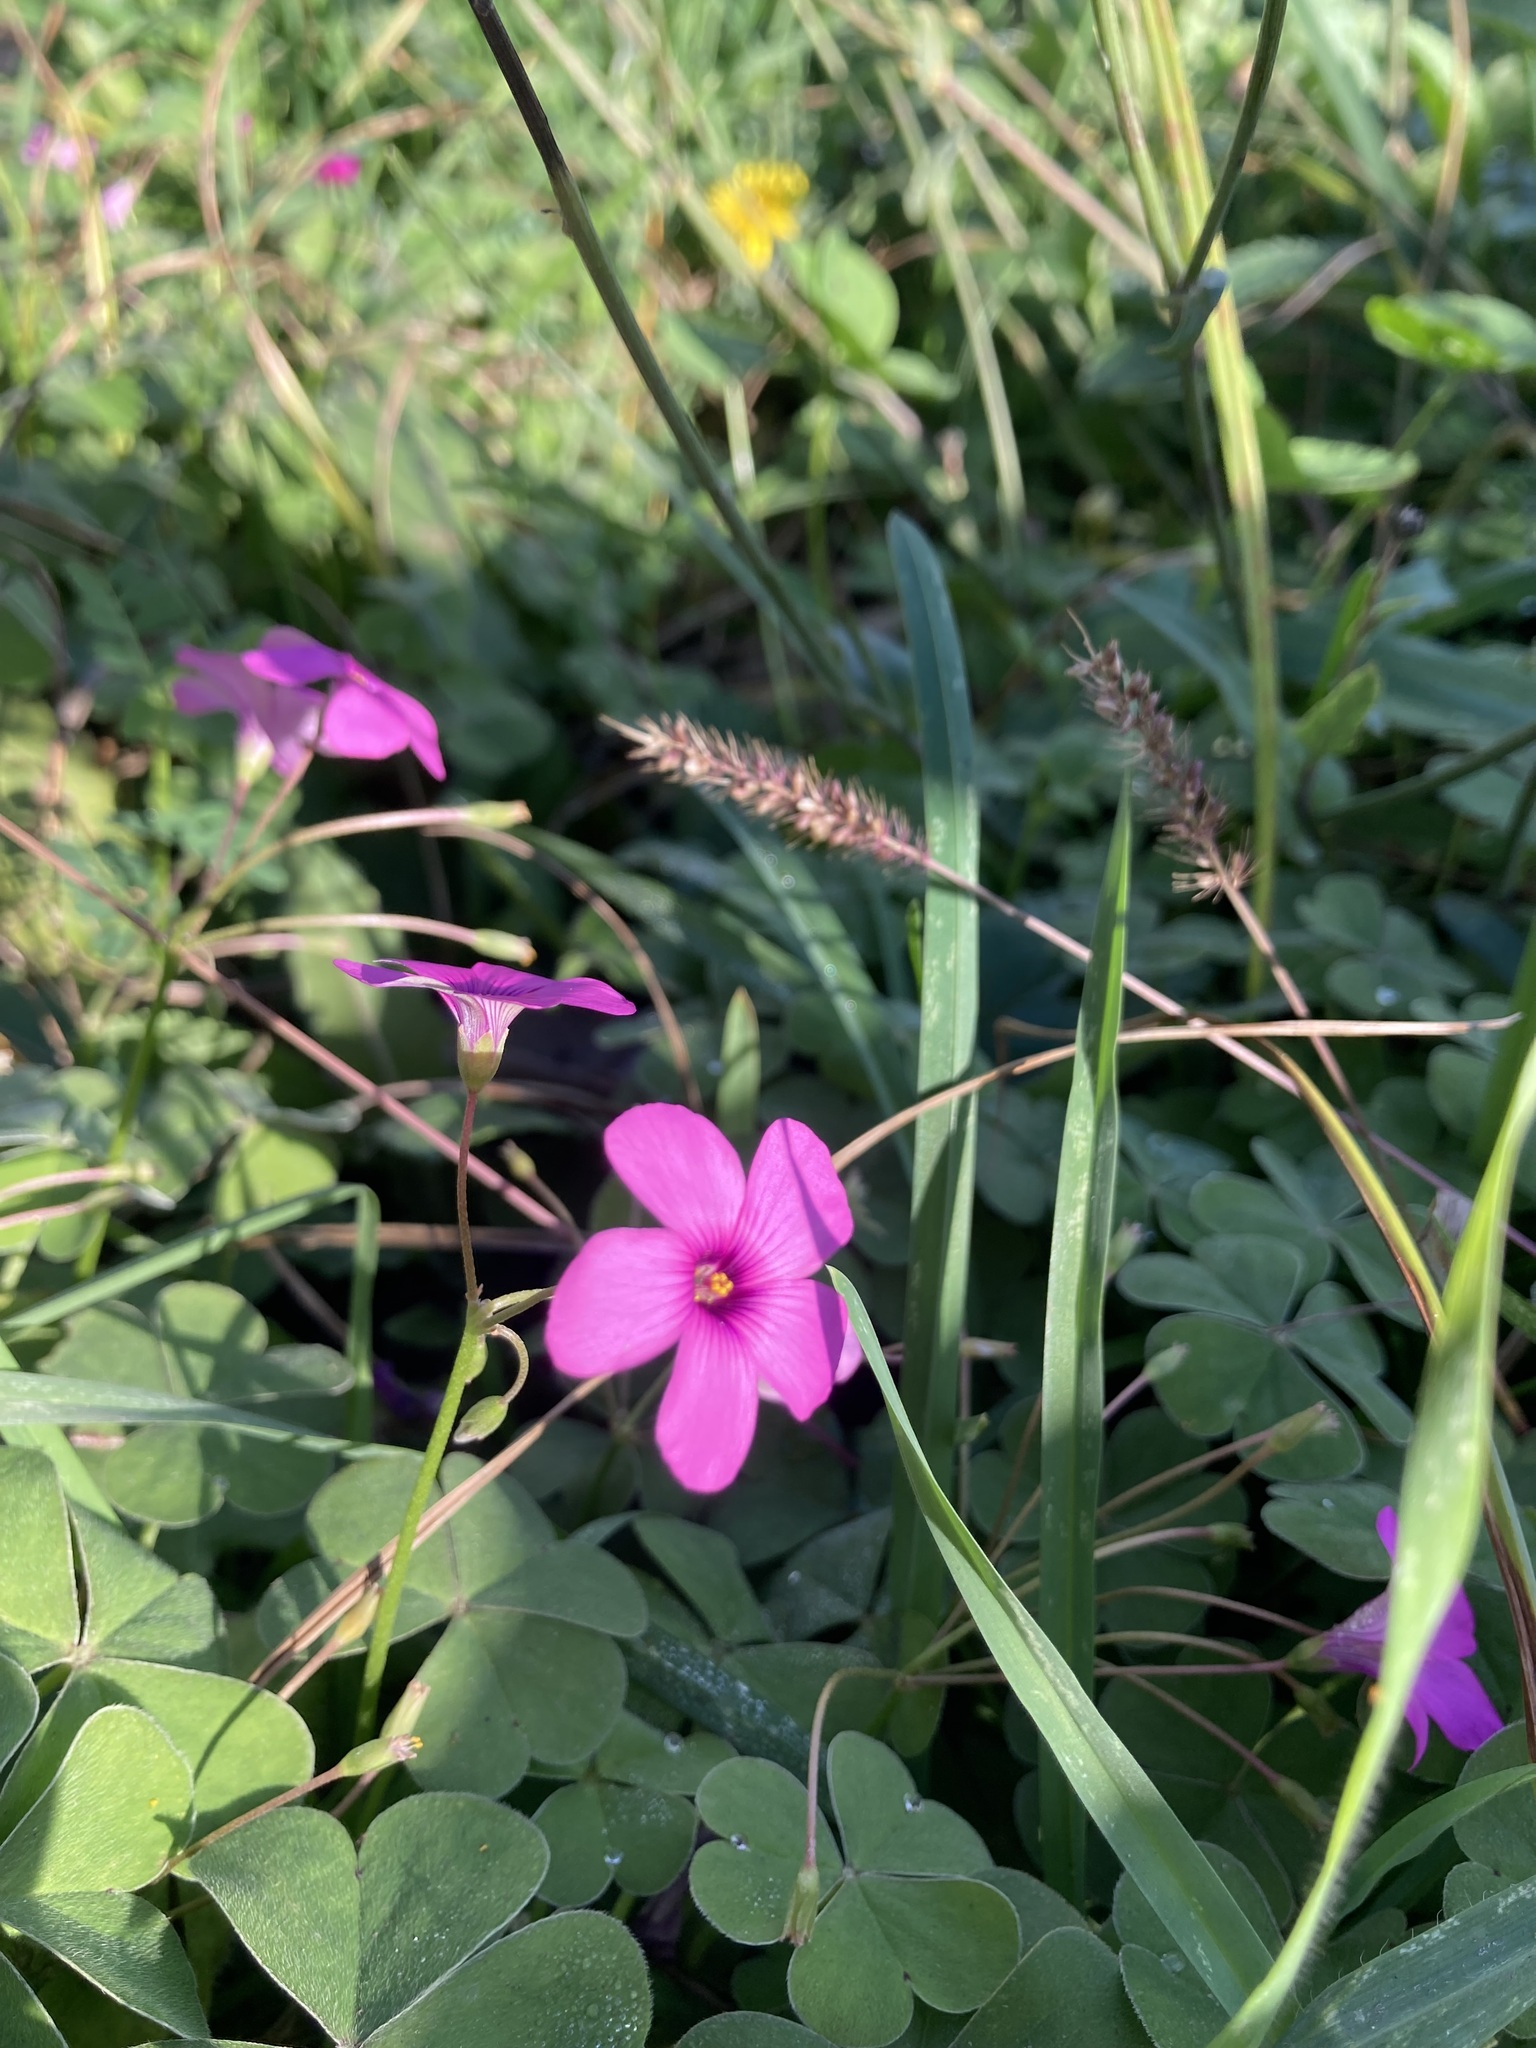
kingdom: Plantae
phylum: Tracheophyta
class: Magnoliopsida
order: Oxalidales
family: Oxalidaceae
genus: Oxalis
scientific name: Oxalis articulata
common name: Pink-sorrel
